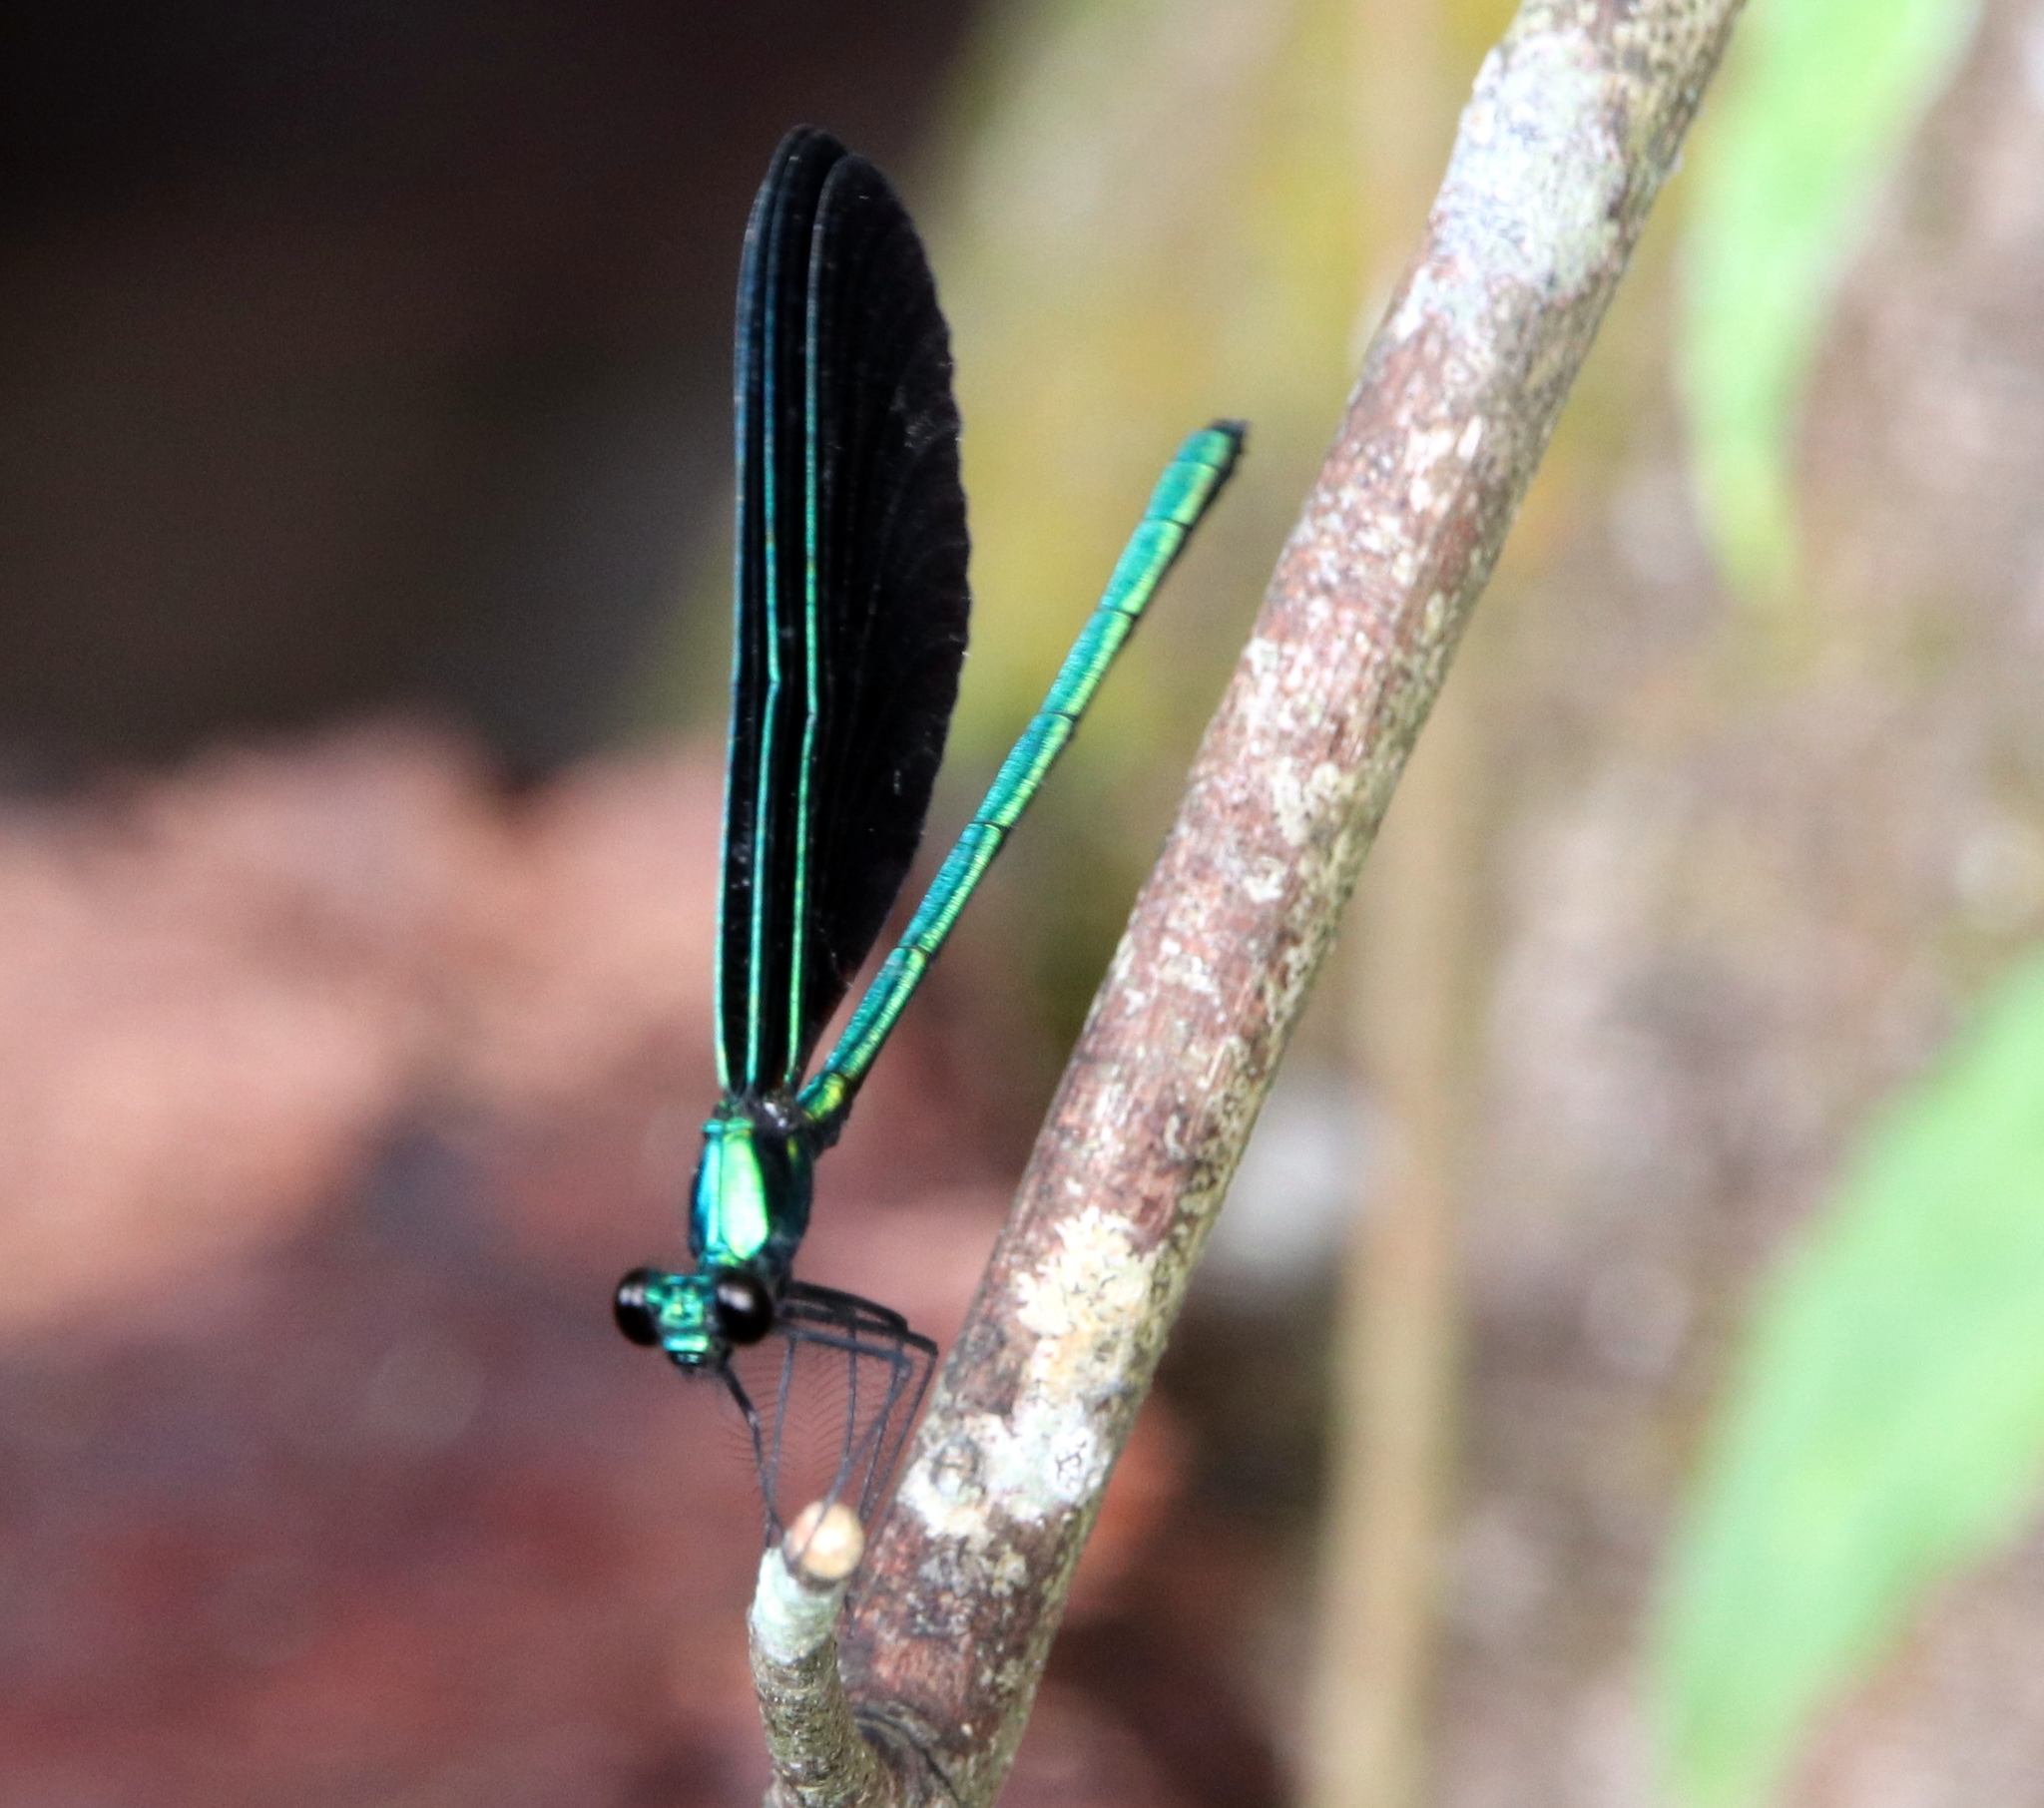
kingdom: Animalia
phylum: Arthropoda
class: Insecta
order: Odonata
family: Calopterygidae
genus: Calopteryx
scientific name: Calopteryx maculata
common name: Ebony jewelwing
